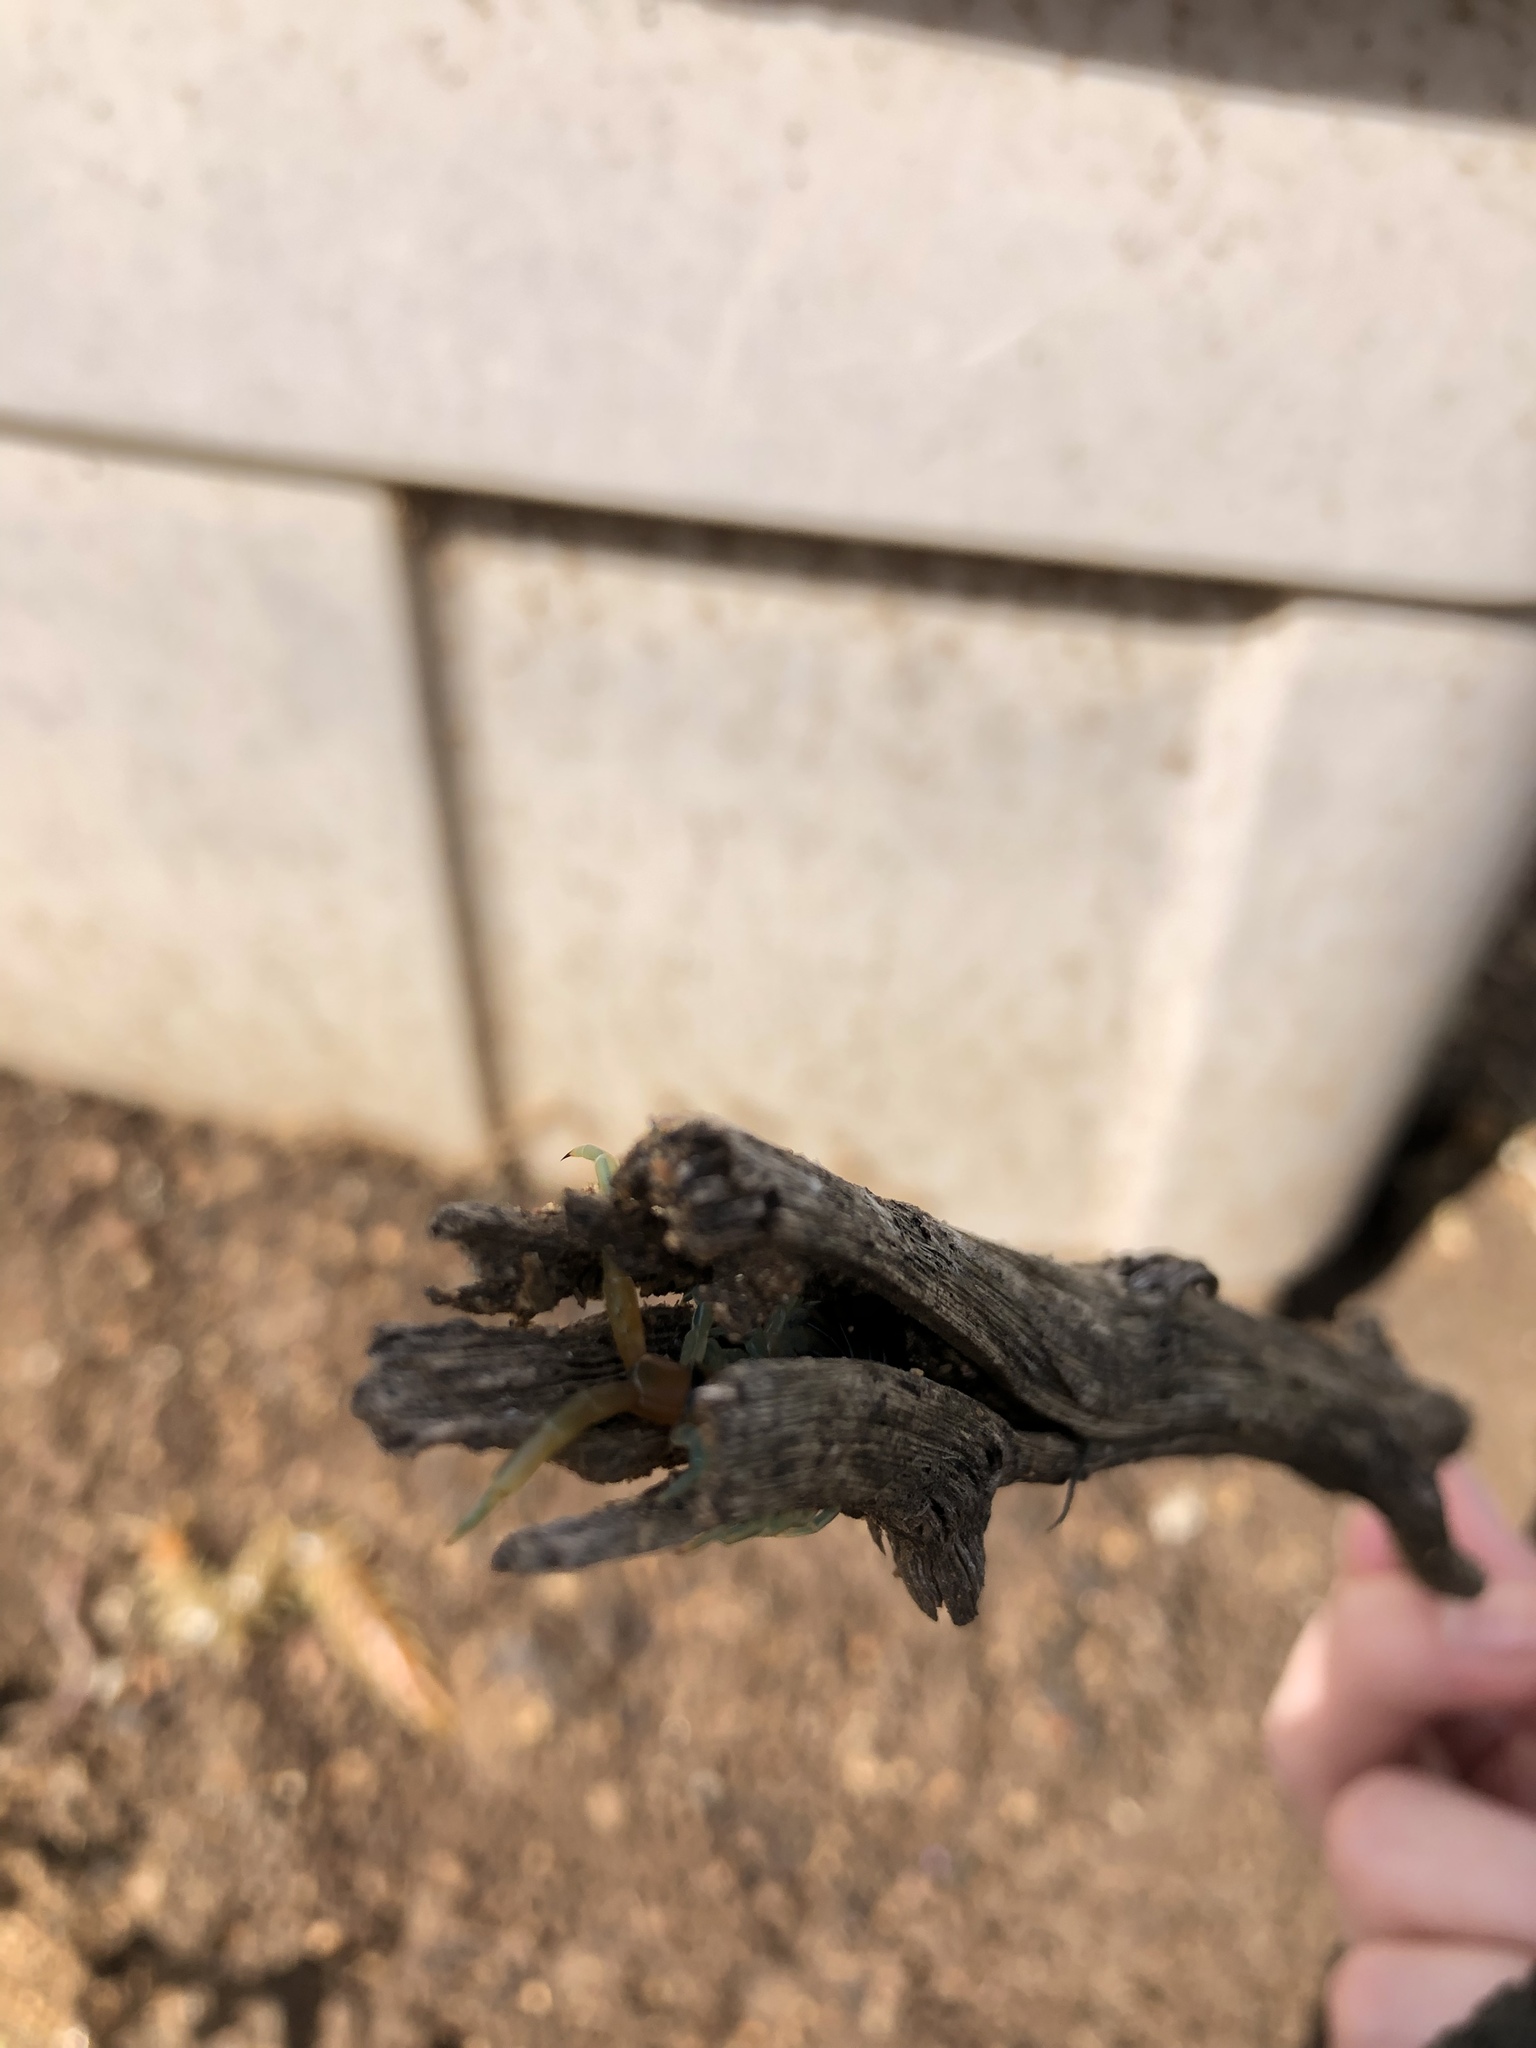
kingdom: Animalia
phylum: Arthropoda
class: Chilopoda
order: Scolopendromorpha
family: Scolopendridae
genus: Scolopendra
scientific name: Scolopendra polymorpha
